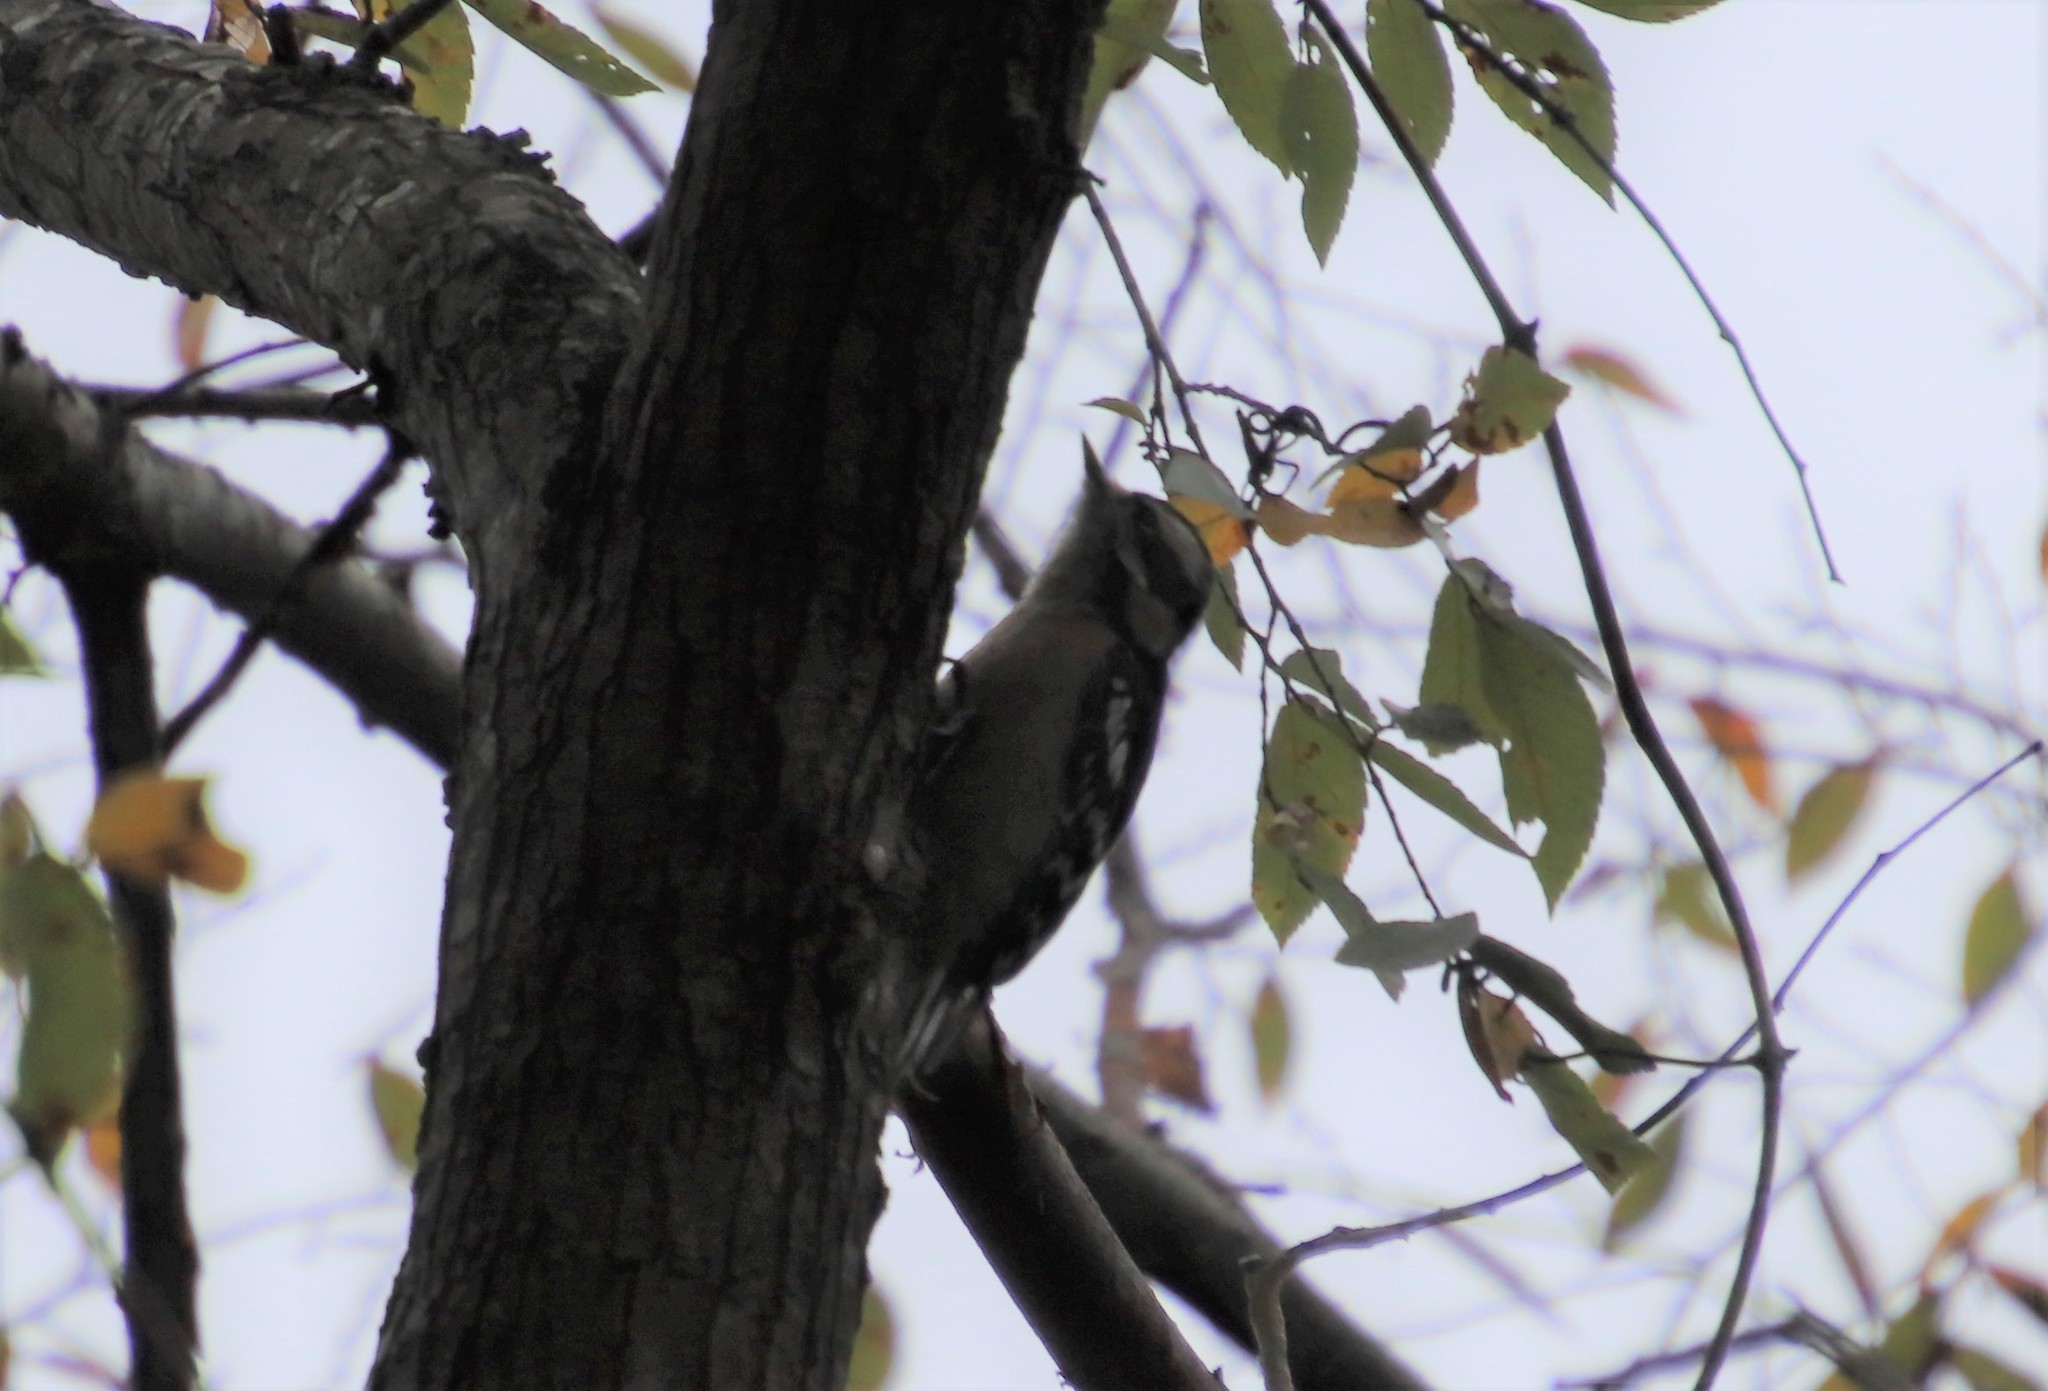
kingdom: Animalia
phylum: Chordata
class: Aves
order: Piciformes
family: Picidae
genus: Dryobates
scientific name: Dryobates pubescens
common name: Downy woodpecker
